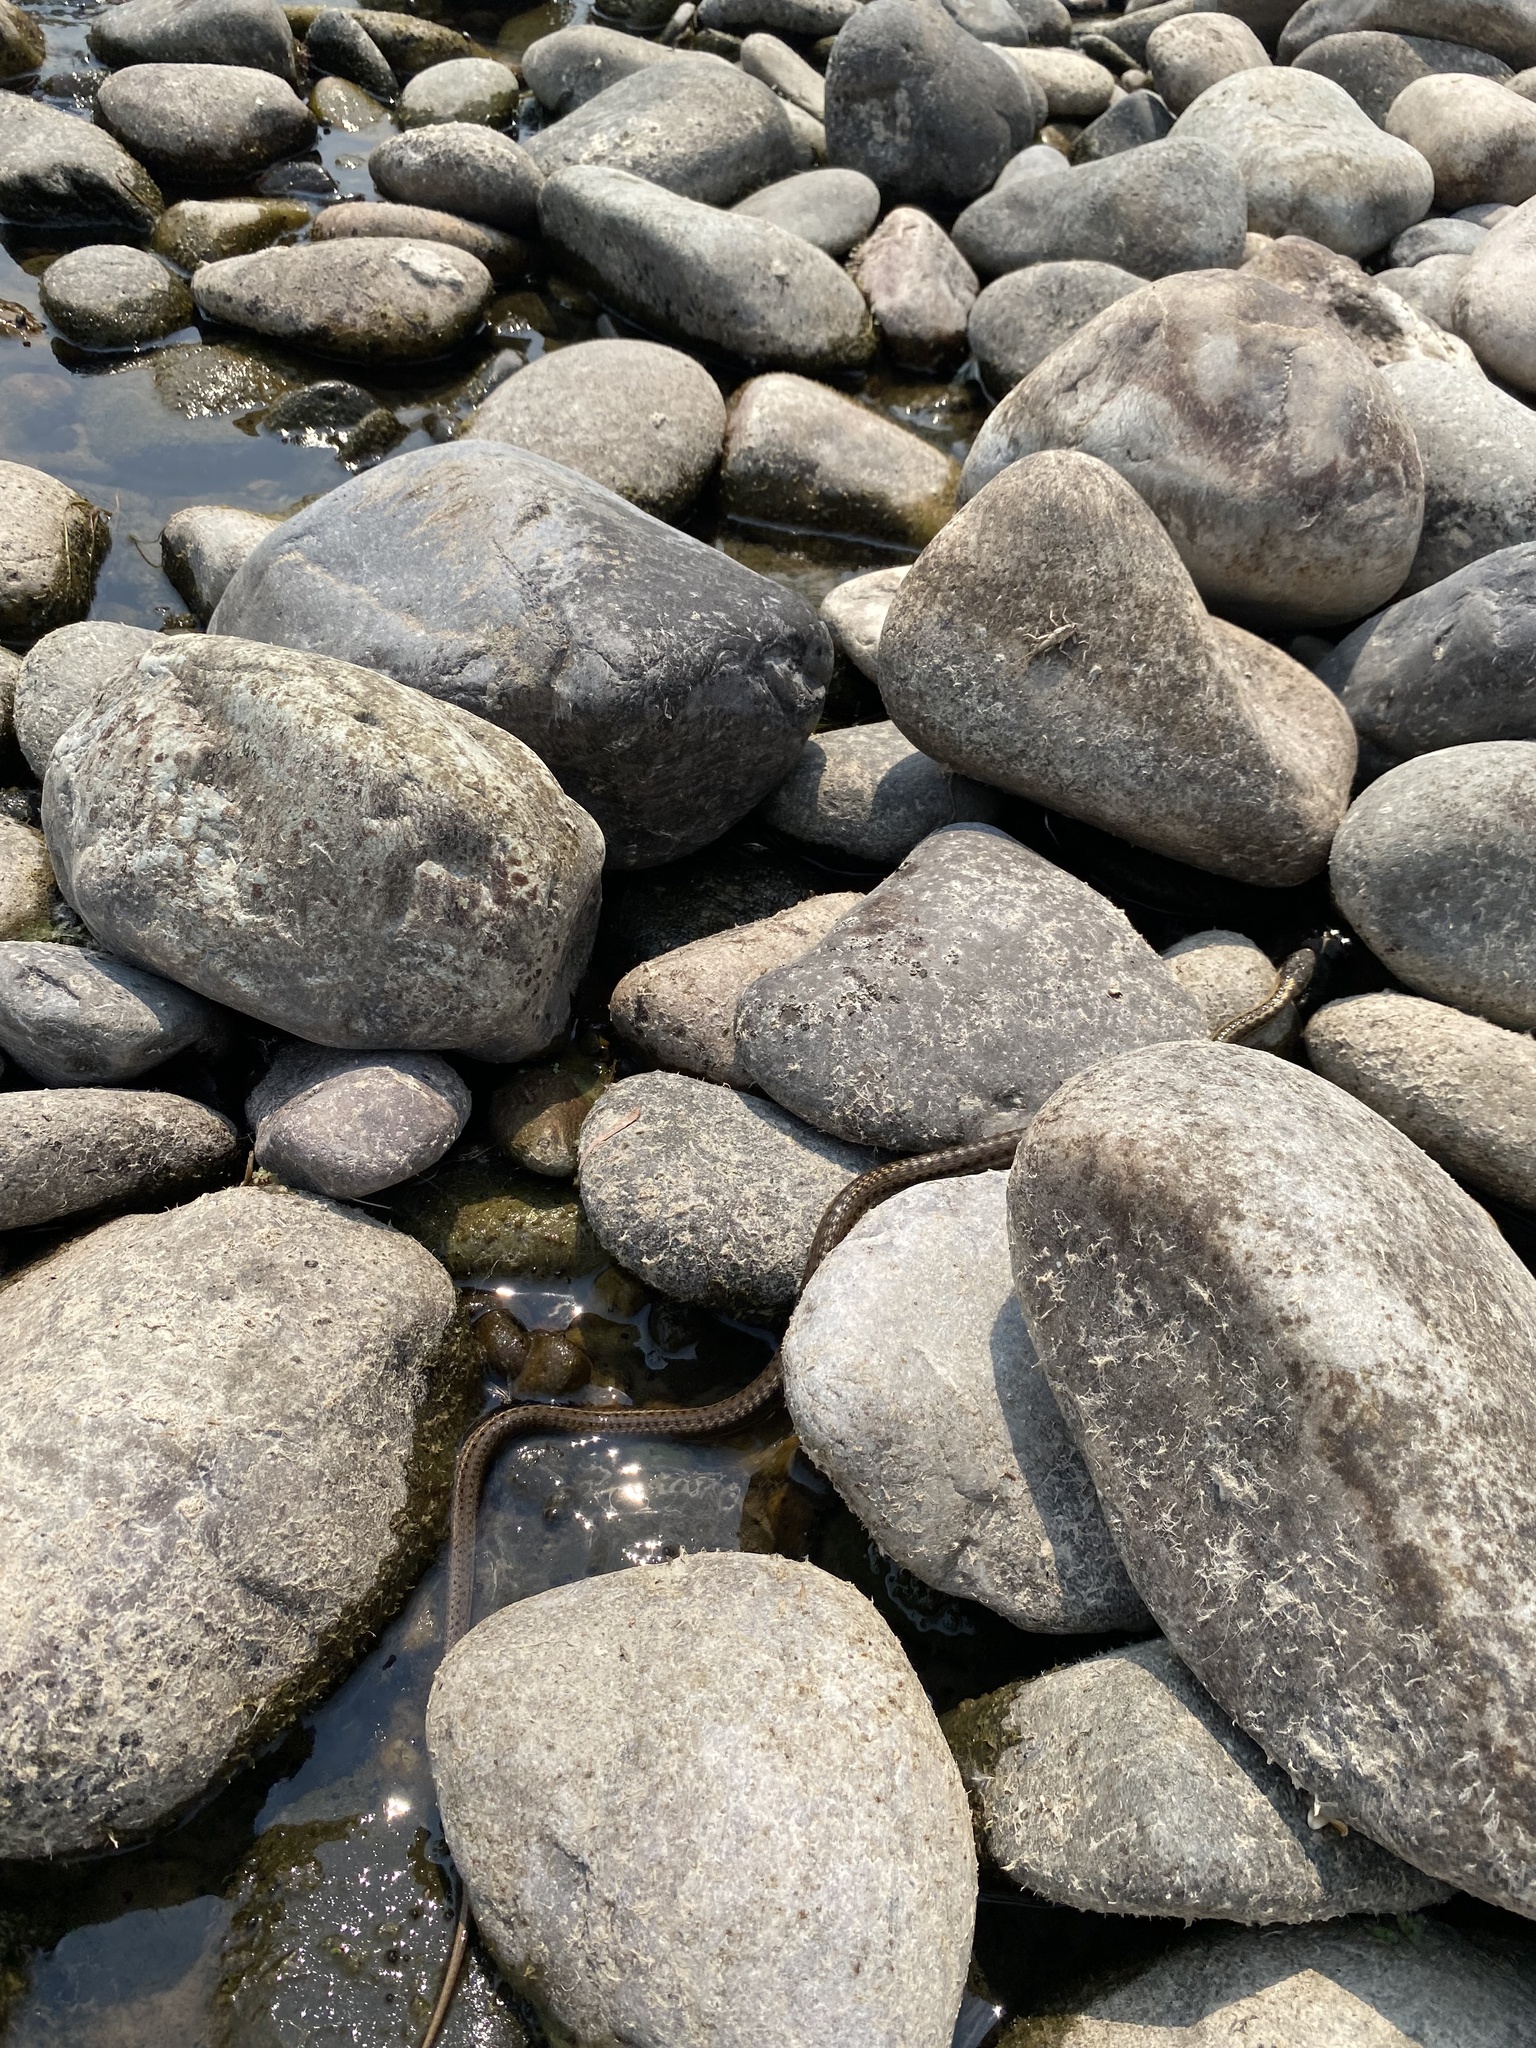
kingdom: Animalia
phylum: Chordata
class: Squamata
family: Colubridae
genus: Thamnophis
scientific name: Thamnophis elegans
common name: Western terrestrial garter snake
